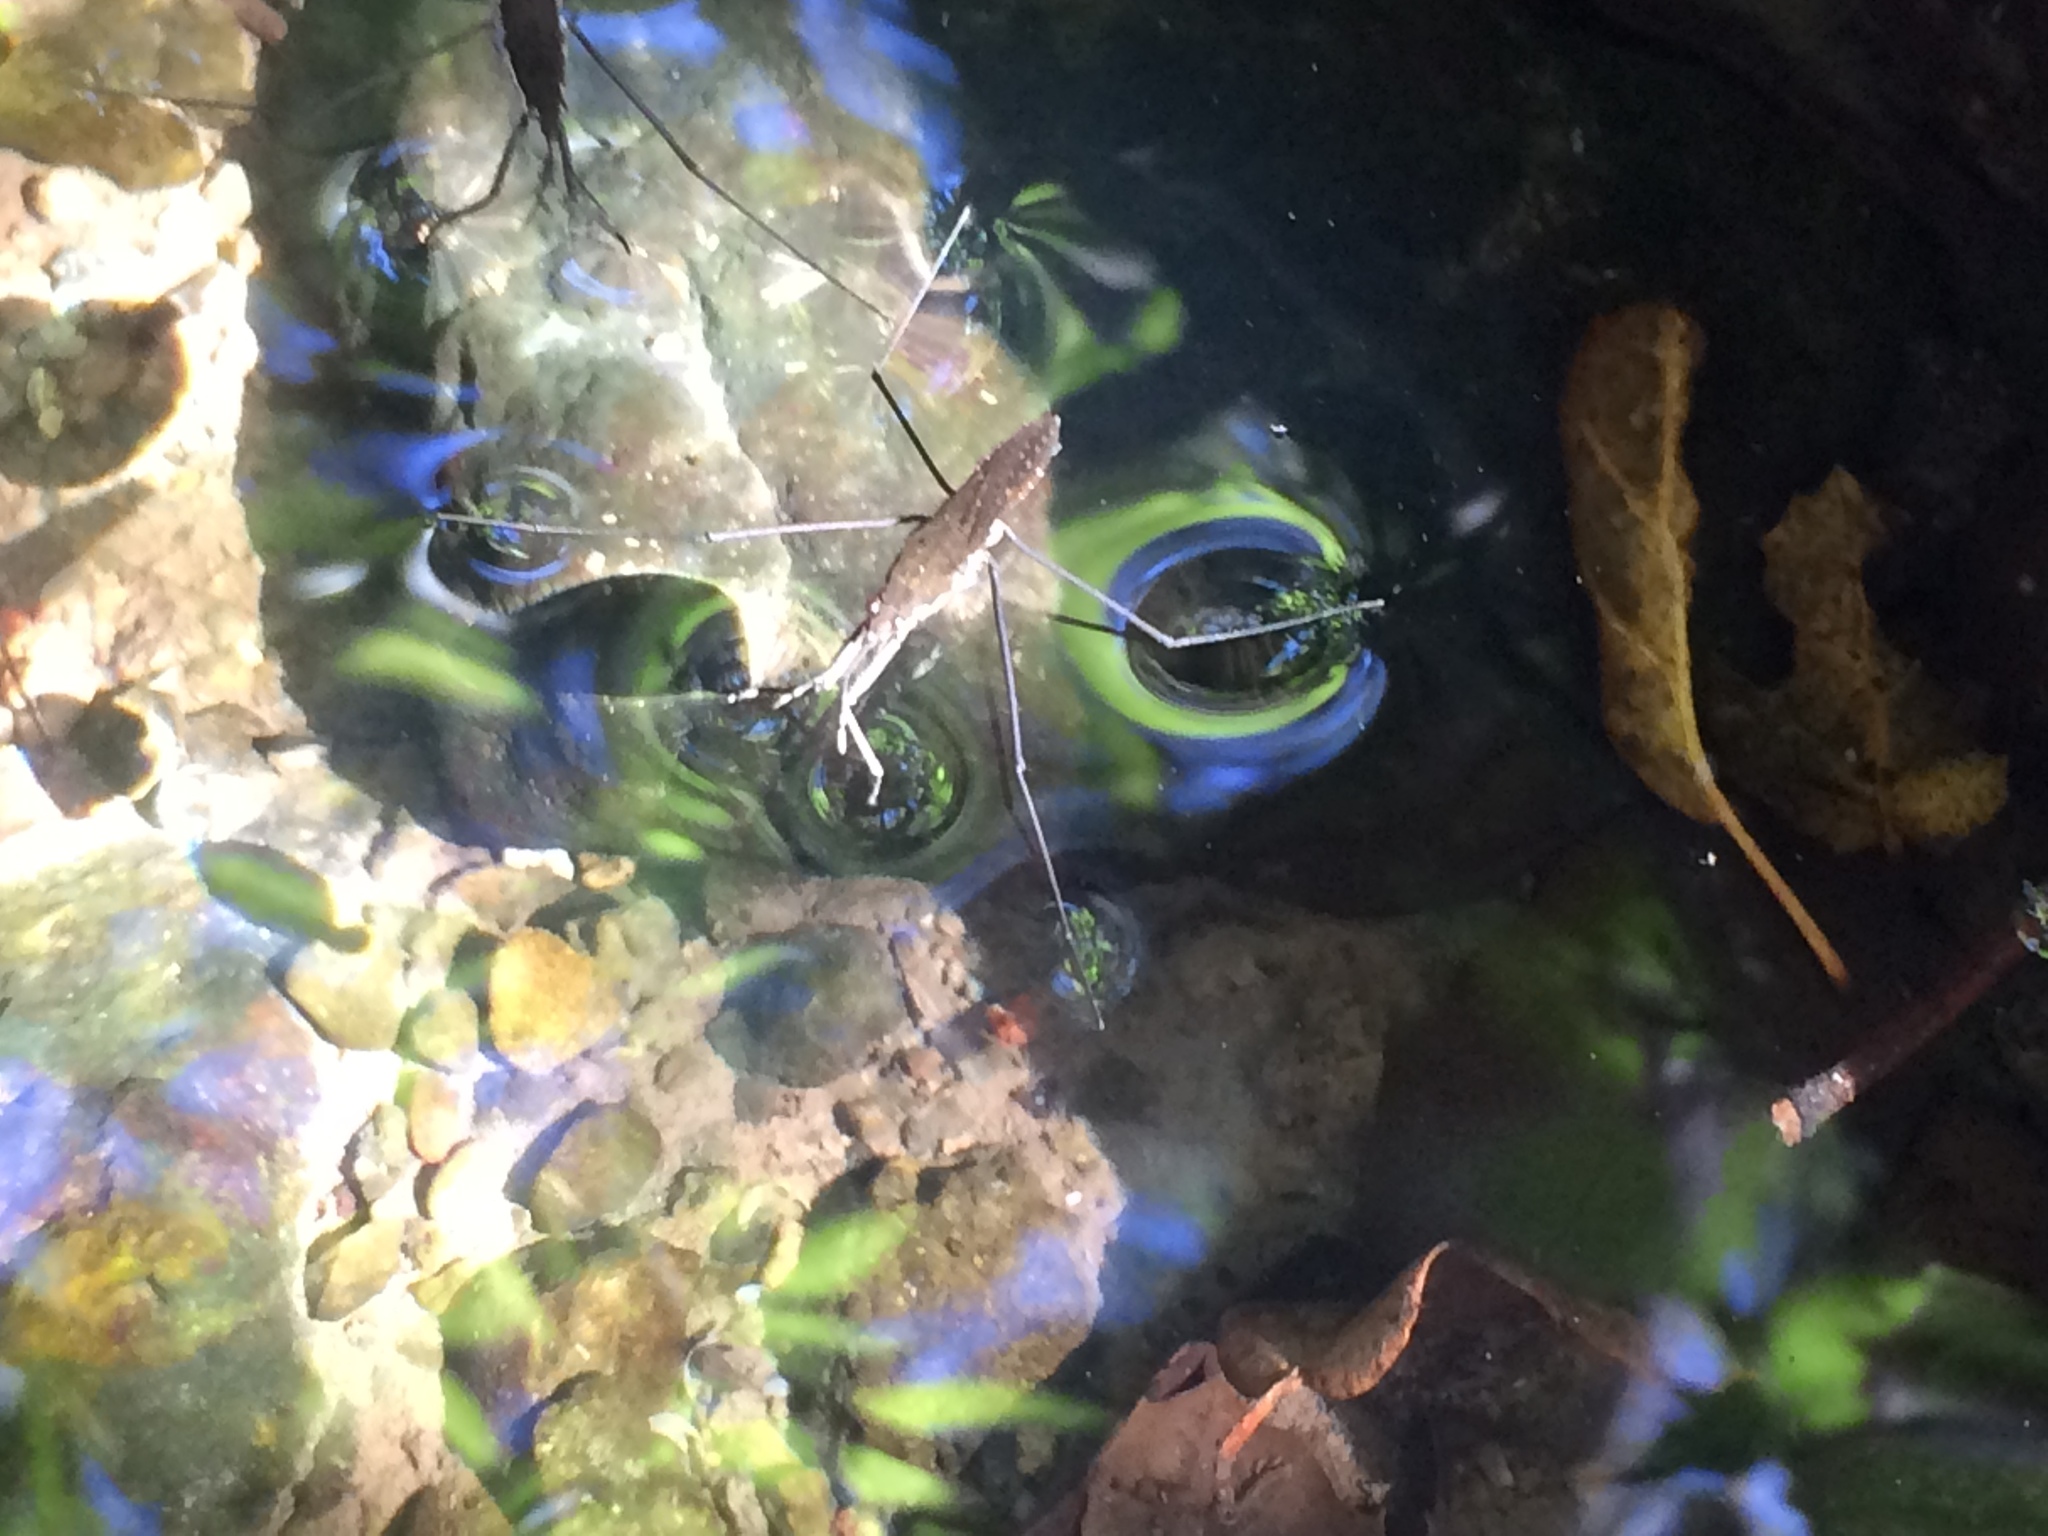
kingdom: Animalia
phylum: Arthropoda
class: Insecta
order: Hemiptera
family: Gerridae
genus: Aquarius
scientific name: Aquarius remigis
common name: Common water strider
